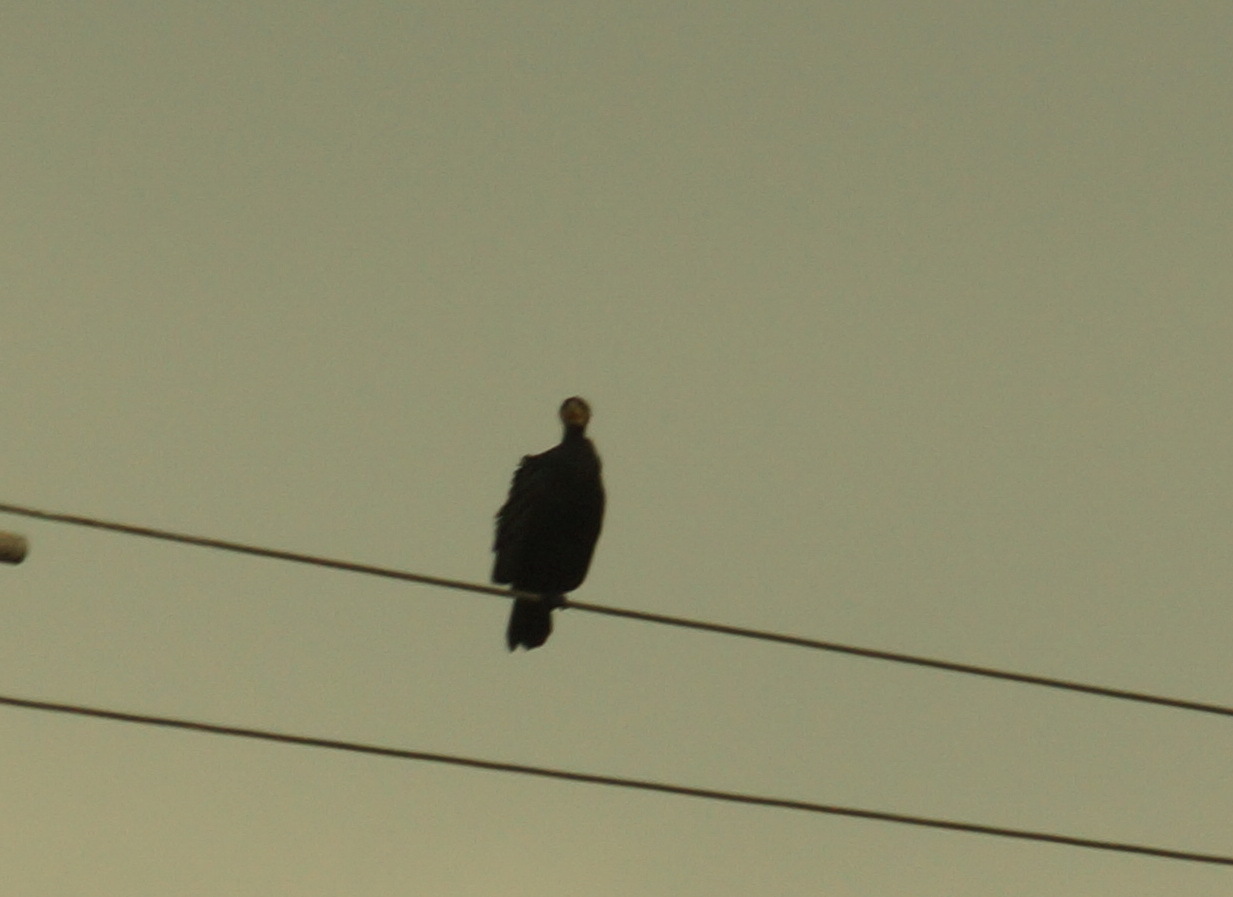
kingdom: Animalia
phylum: Chordata
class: Aves
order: Suliformes
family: Phalacrocoracidae
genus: Phalacrocorax
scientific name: Phalacrocorax carbo
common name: Great cormorant
